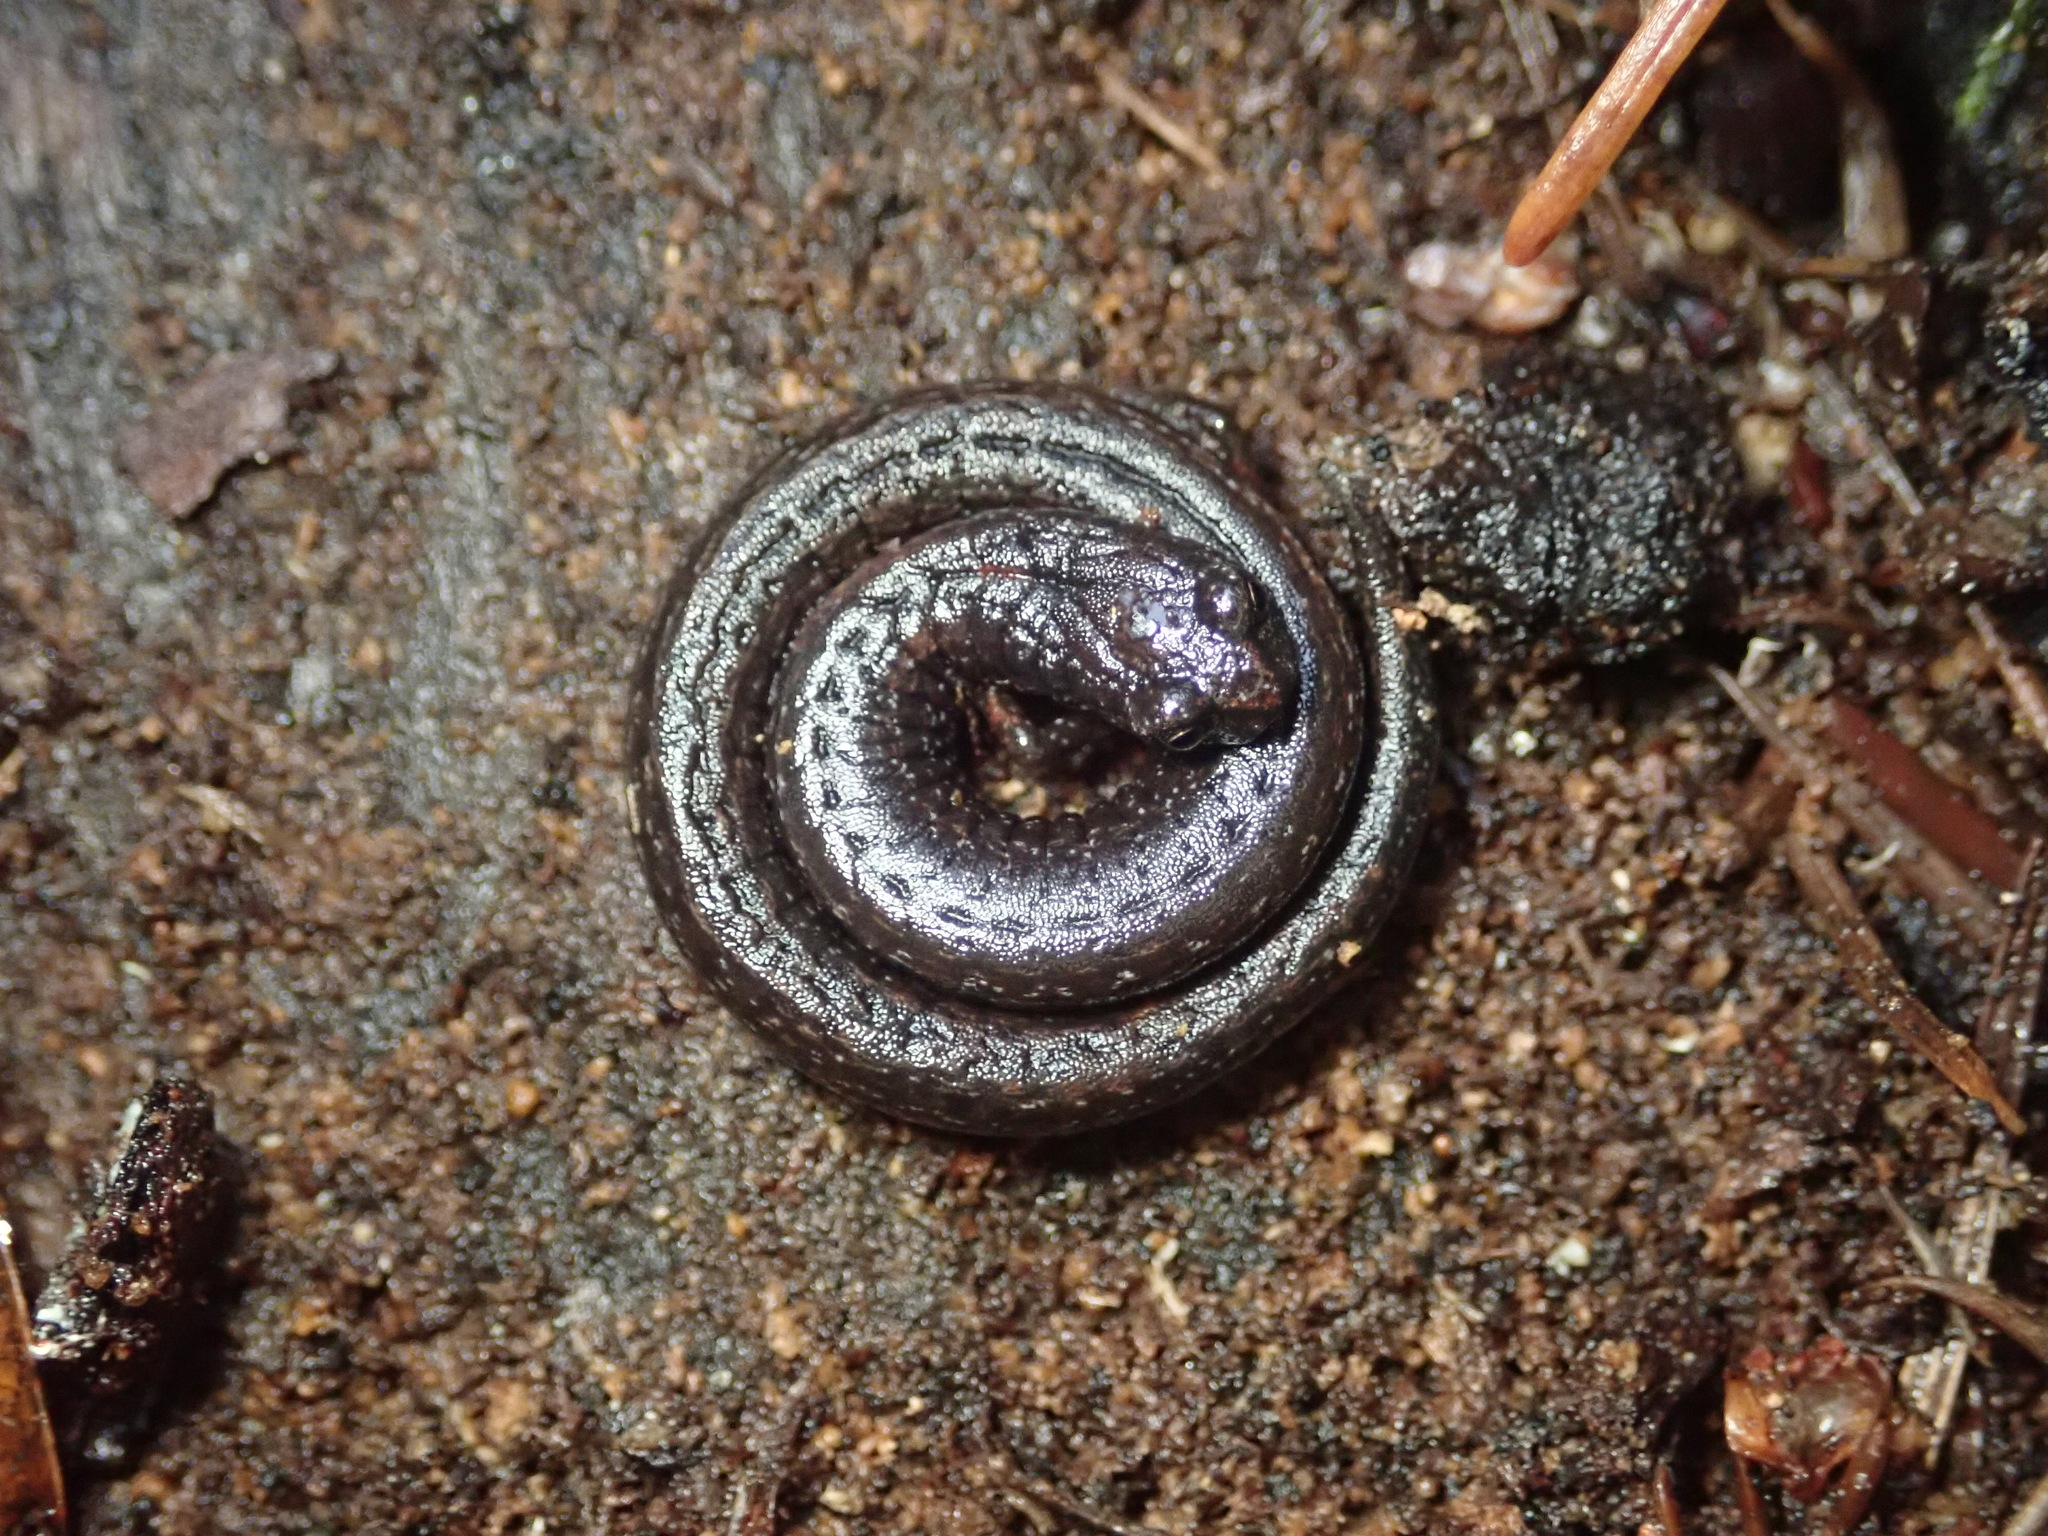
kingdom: Animalia
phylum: Chordata
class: Amphibia
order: Caudata
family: Plethodontidae
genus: Batrachoseps
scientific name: Batrachoseps attenuatus
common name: California slender salamander
